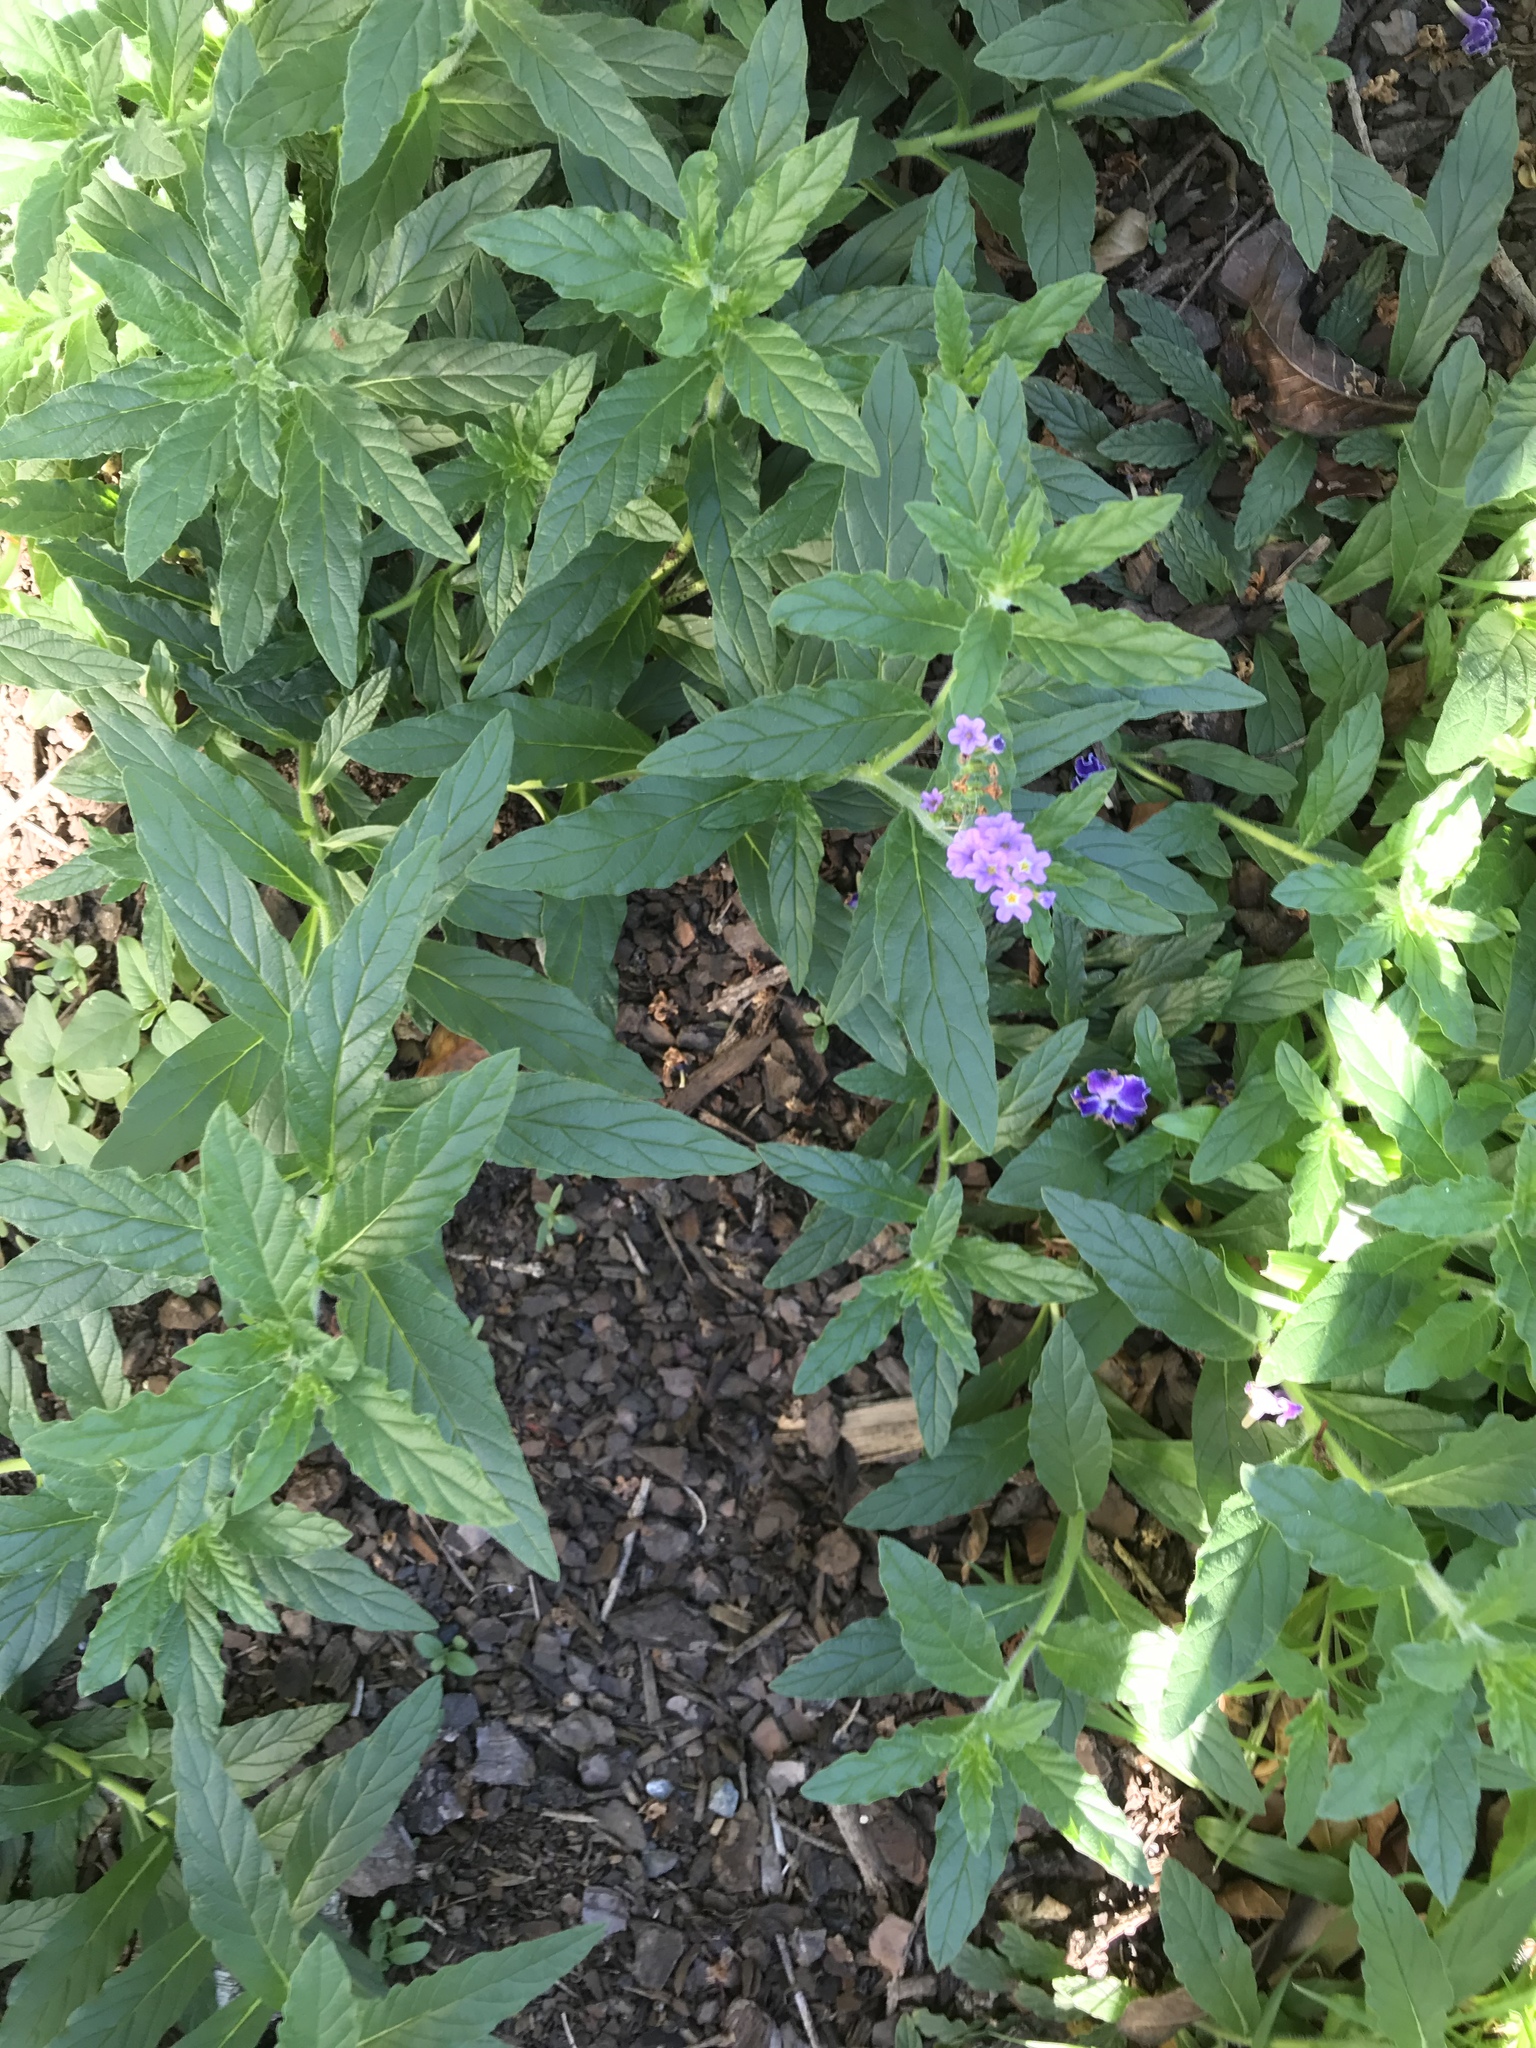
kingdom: Plantae
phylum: Tracheophyta
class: Magnoliopsida
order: Boraginales
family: Heliotropiaceae
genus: Heliotropium
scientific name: Heliotropium amplexicaule
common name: Clasping heliotrope
